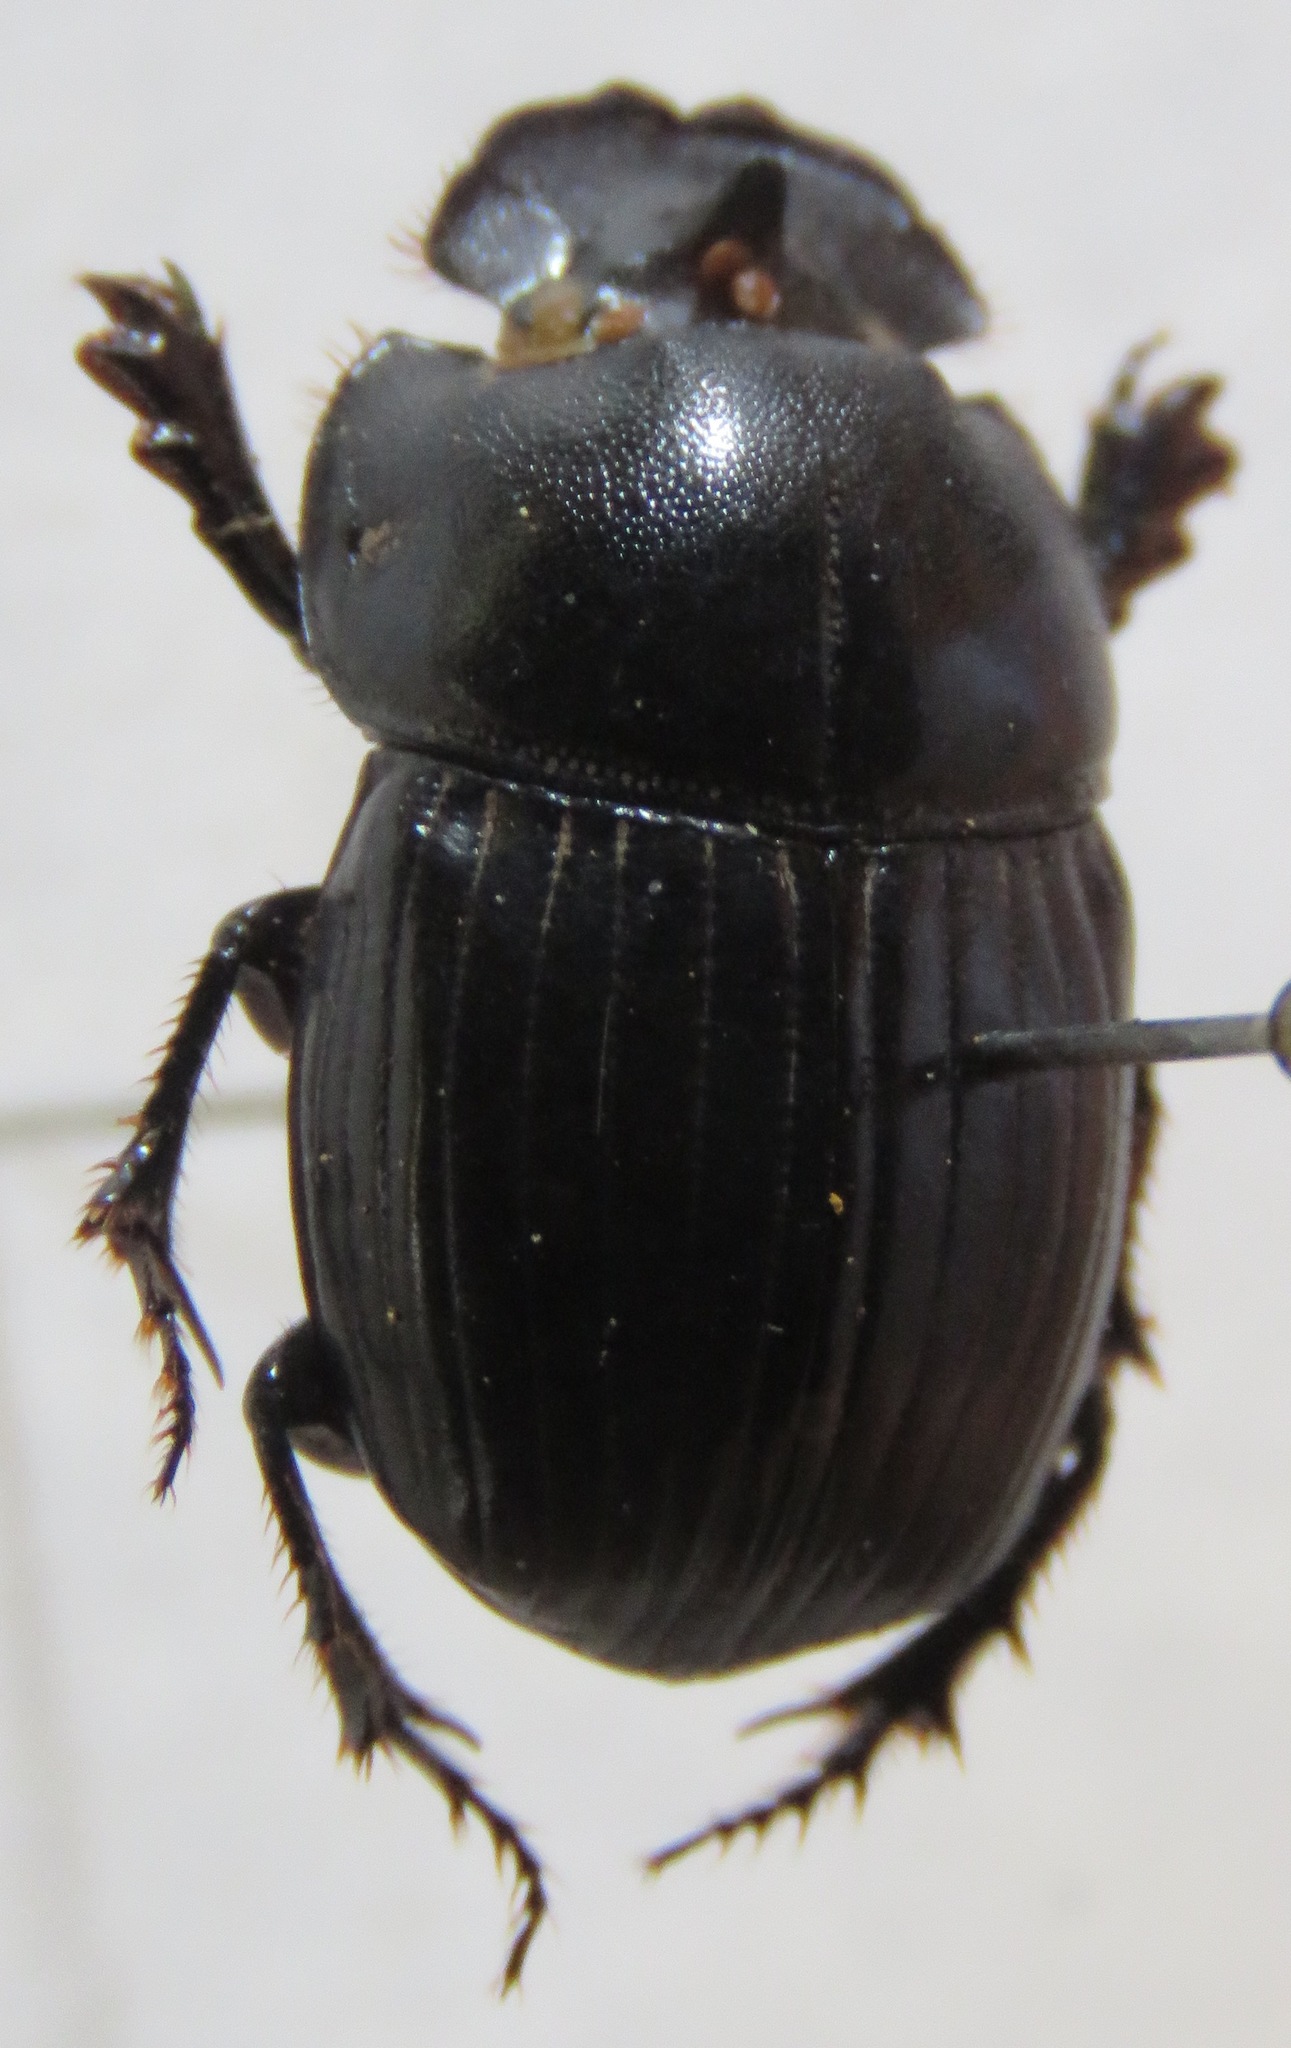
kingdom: Animalia
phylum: Arthropoda
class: Insecta
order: Coleoptera
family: Scarabaeidae
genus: Copris
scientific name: Copris lugubris
